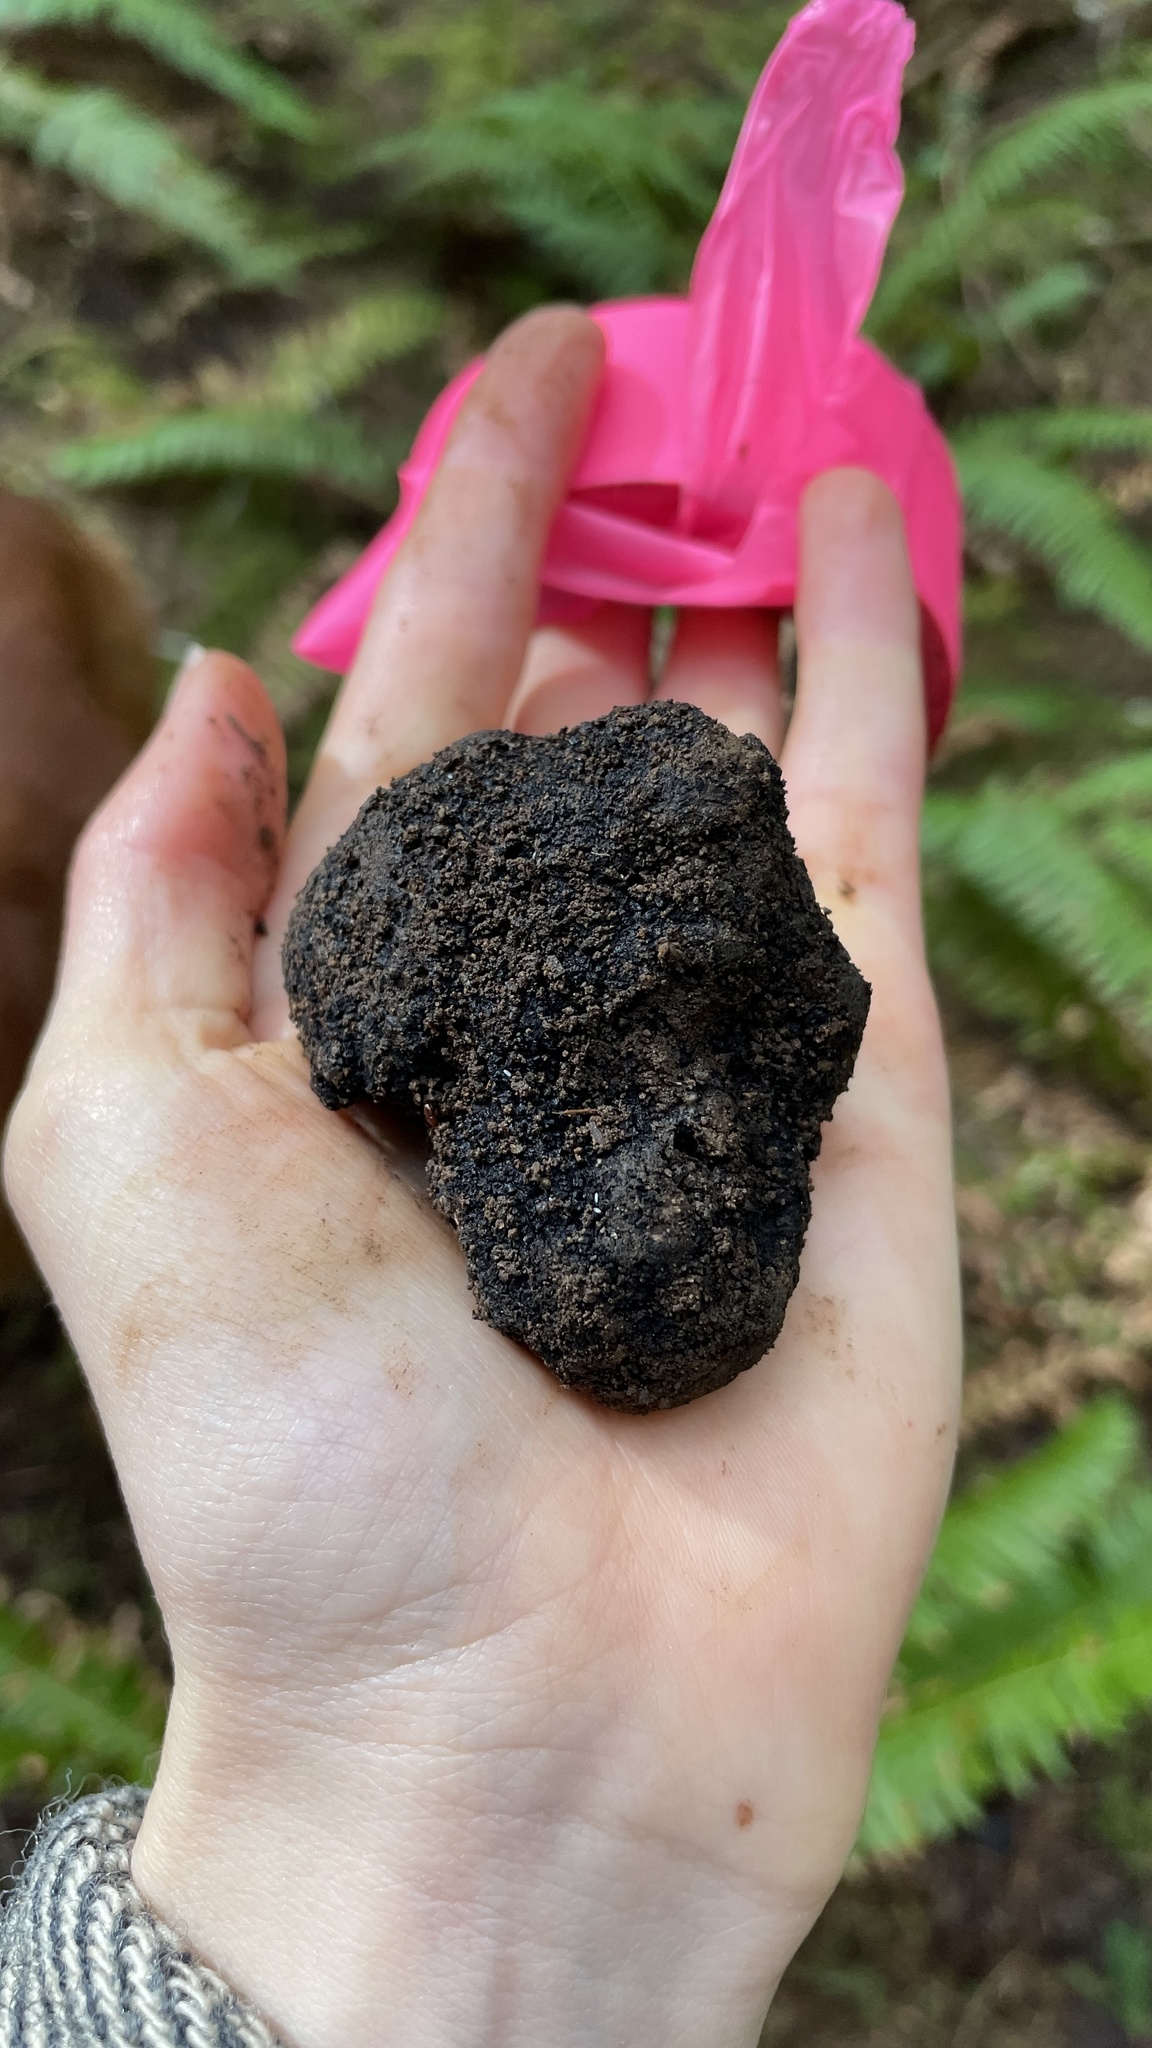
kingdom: Fungi
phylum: Ascomycota
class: Pezizomycetes
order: Pezizales
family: Morchellaceae
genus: Leucangium
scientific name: Leucangium carthusianum
